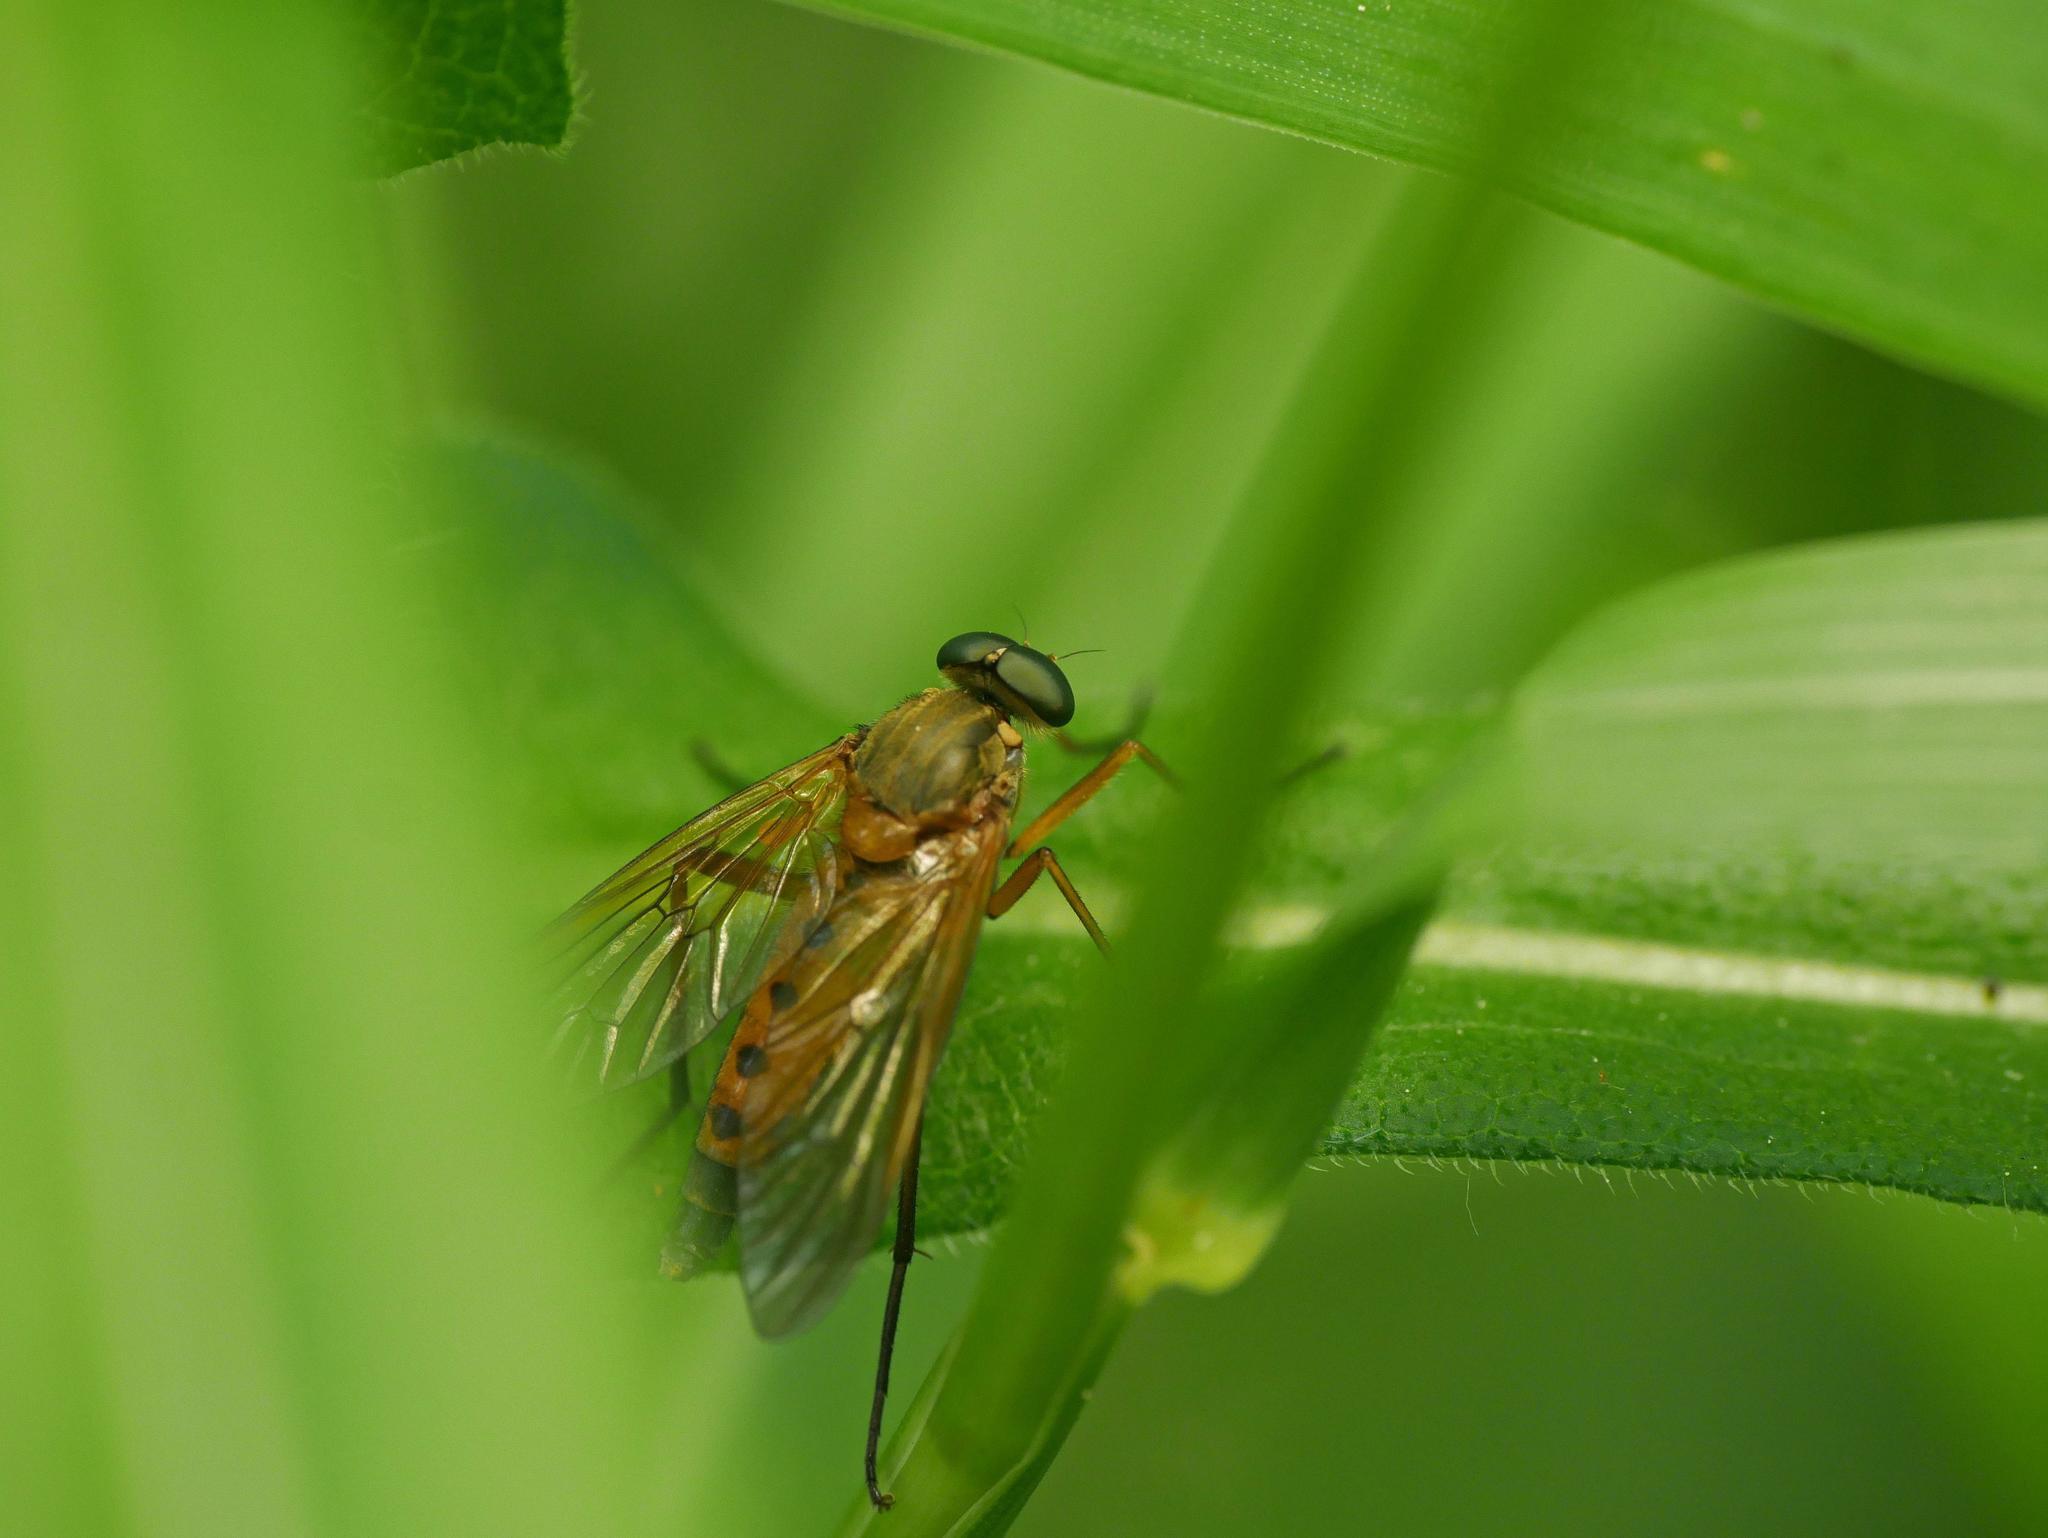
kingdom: Animalia
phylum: Arthropoda
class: Insecta
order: Diptera
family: Rhagionidae
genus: Rhagio
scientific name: Rhagio tringaria
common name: Marsh snipefly
